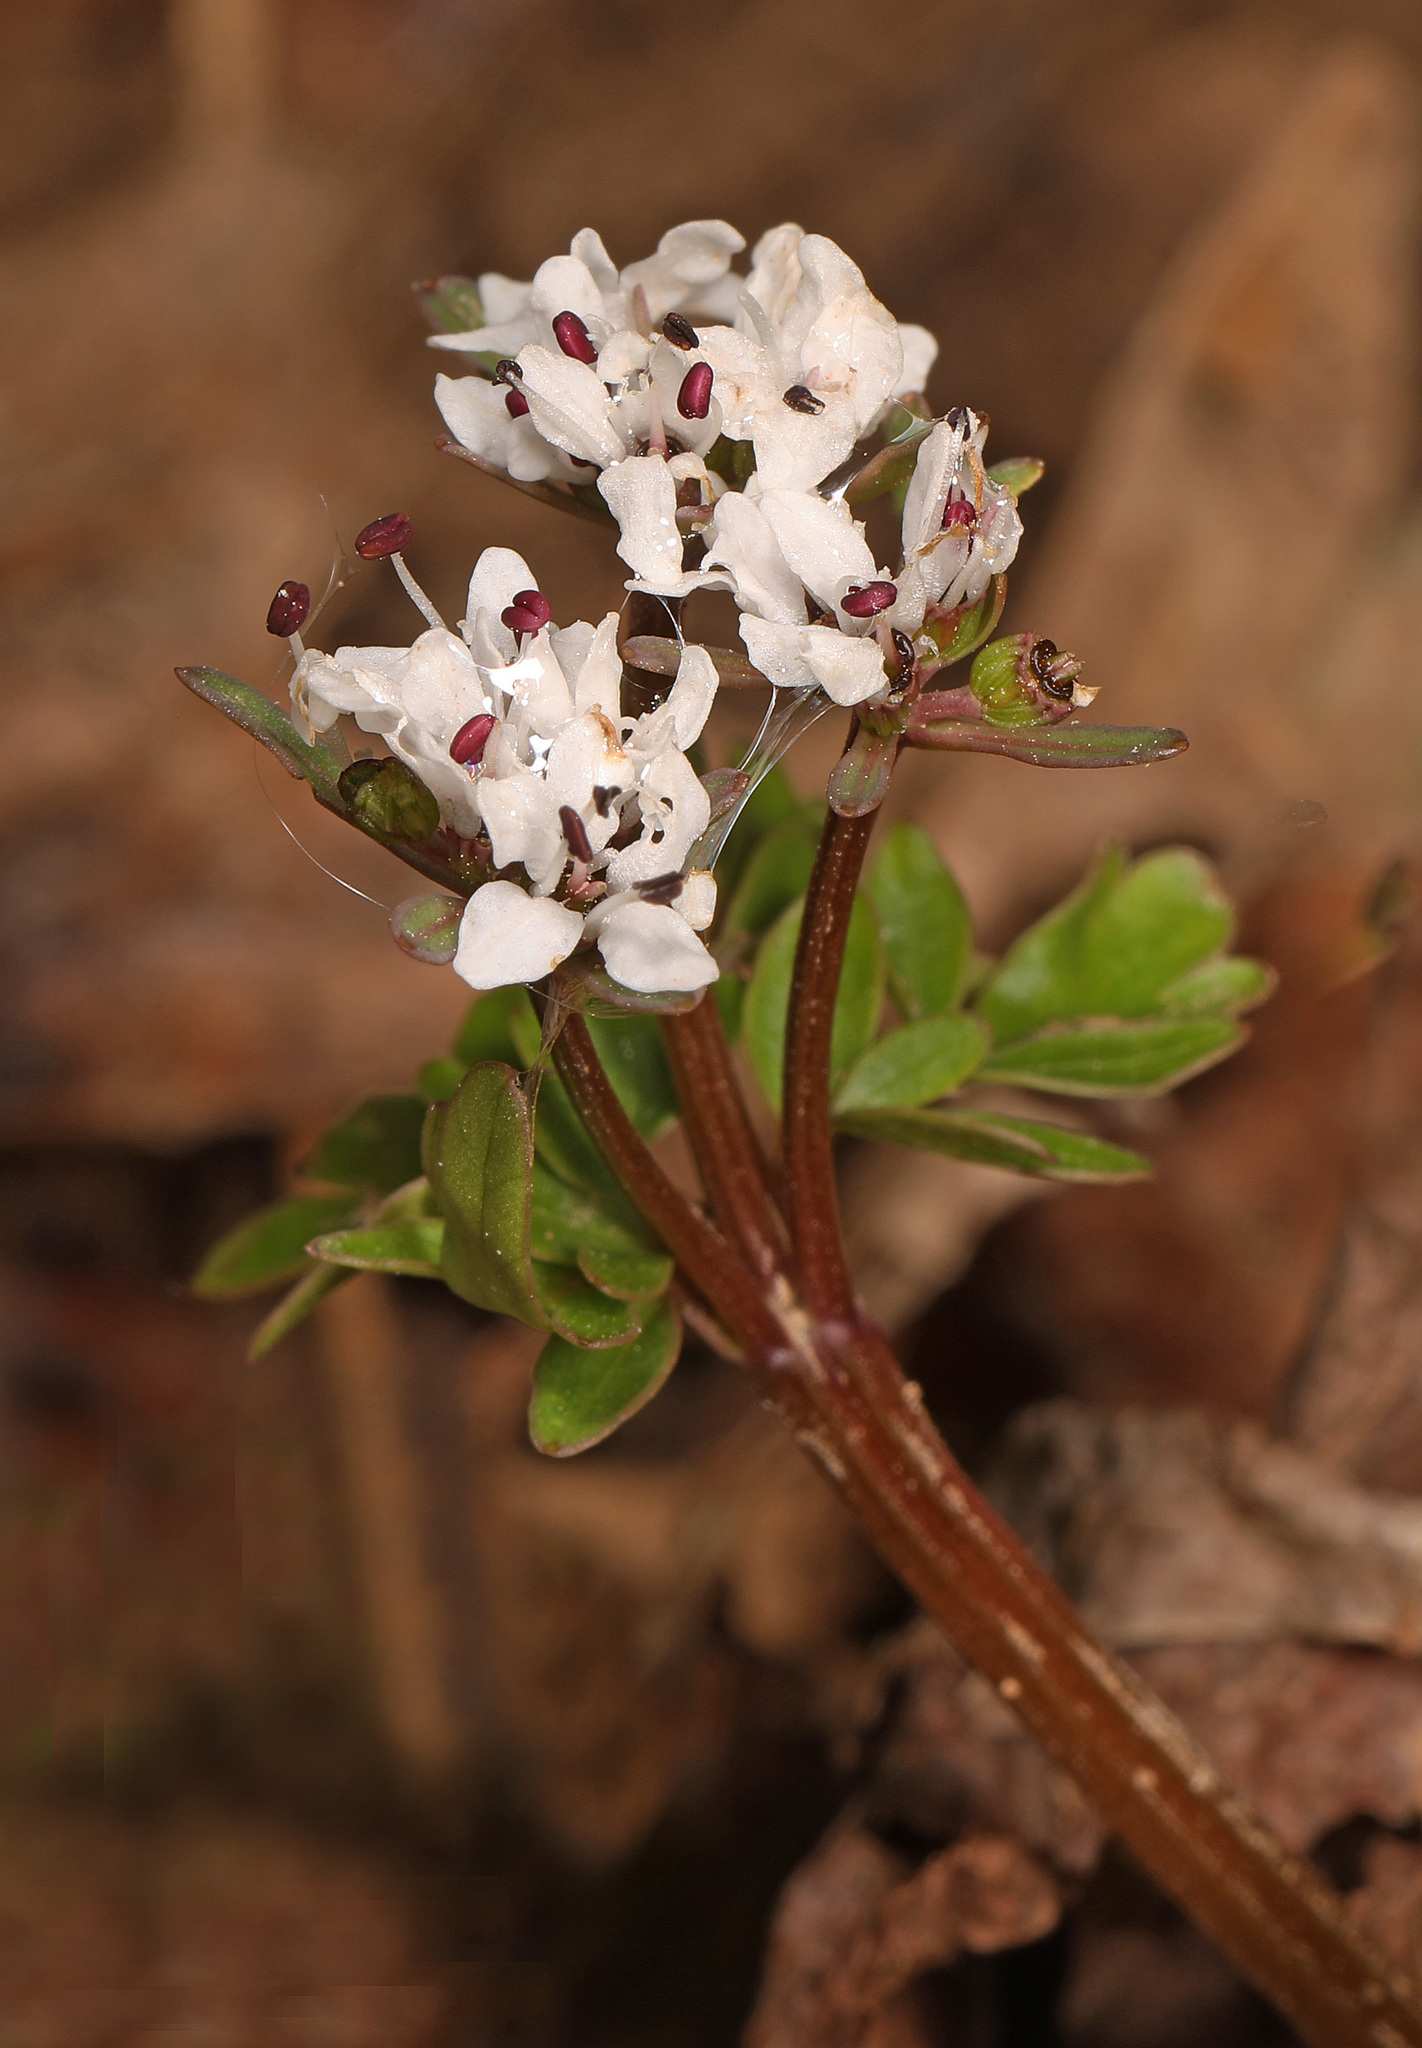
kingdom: Plantae
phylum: Tracheophyta
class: Magnoliopsida
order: Apiales
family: Apiaceae
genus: Erigenia
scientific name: Erigenia bulbosa
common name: Pepper-and-salt
